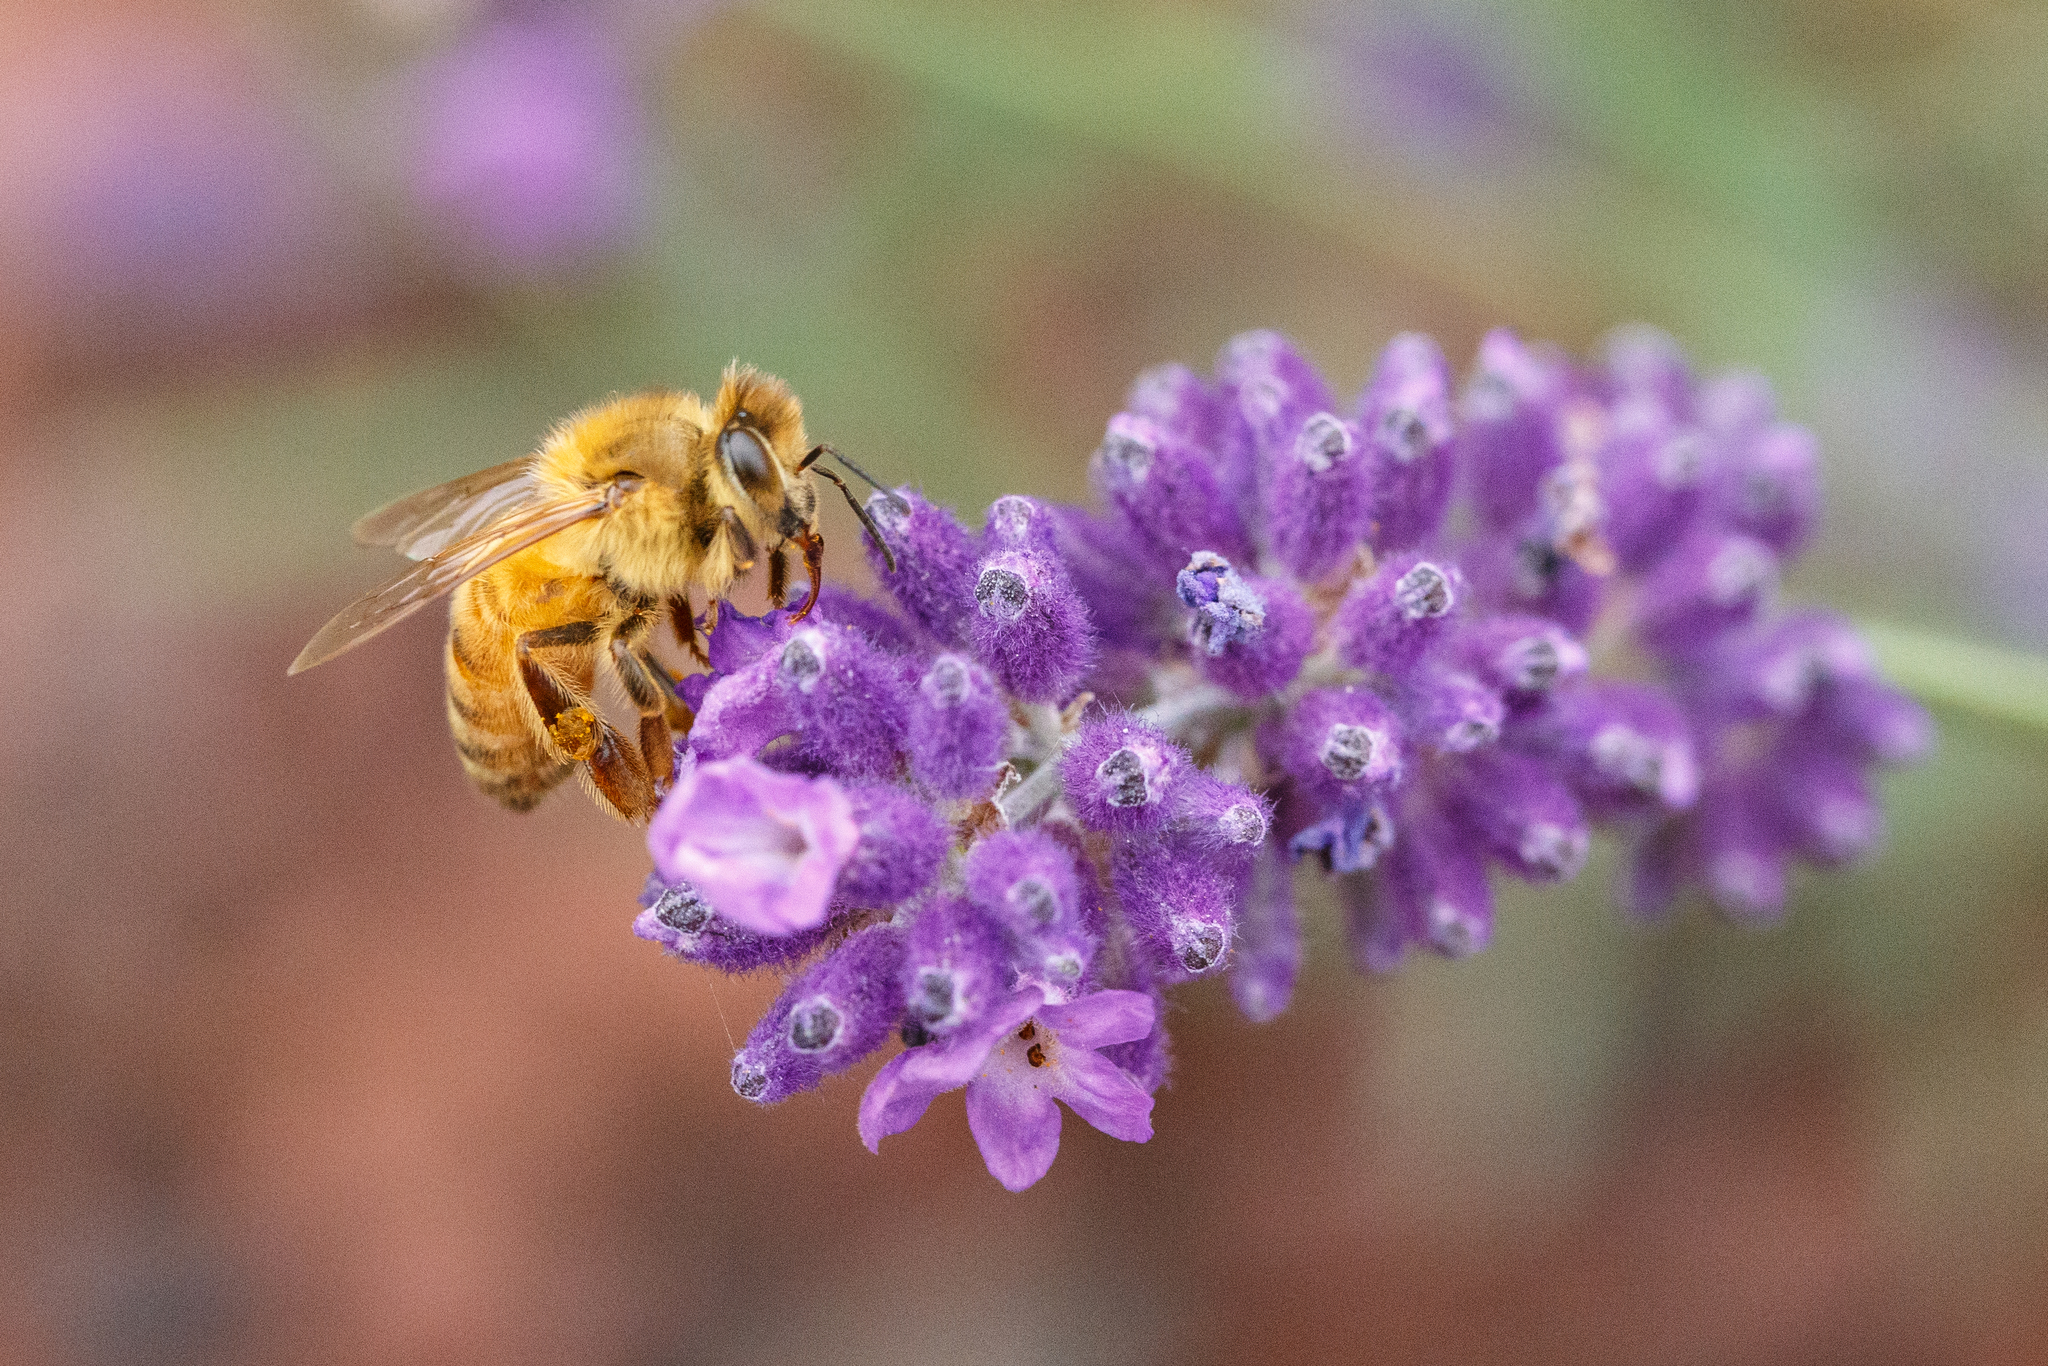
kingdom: Animalia
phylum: Arthropoda
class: Insecta
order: Hymenoptera
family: Apidae
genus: Apis
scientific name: Apis mellifera
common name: Honey bee
